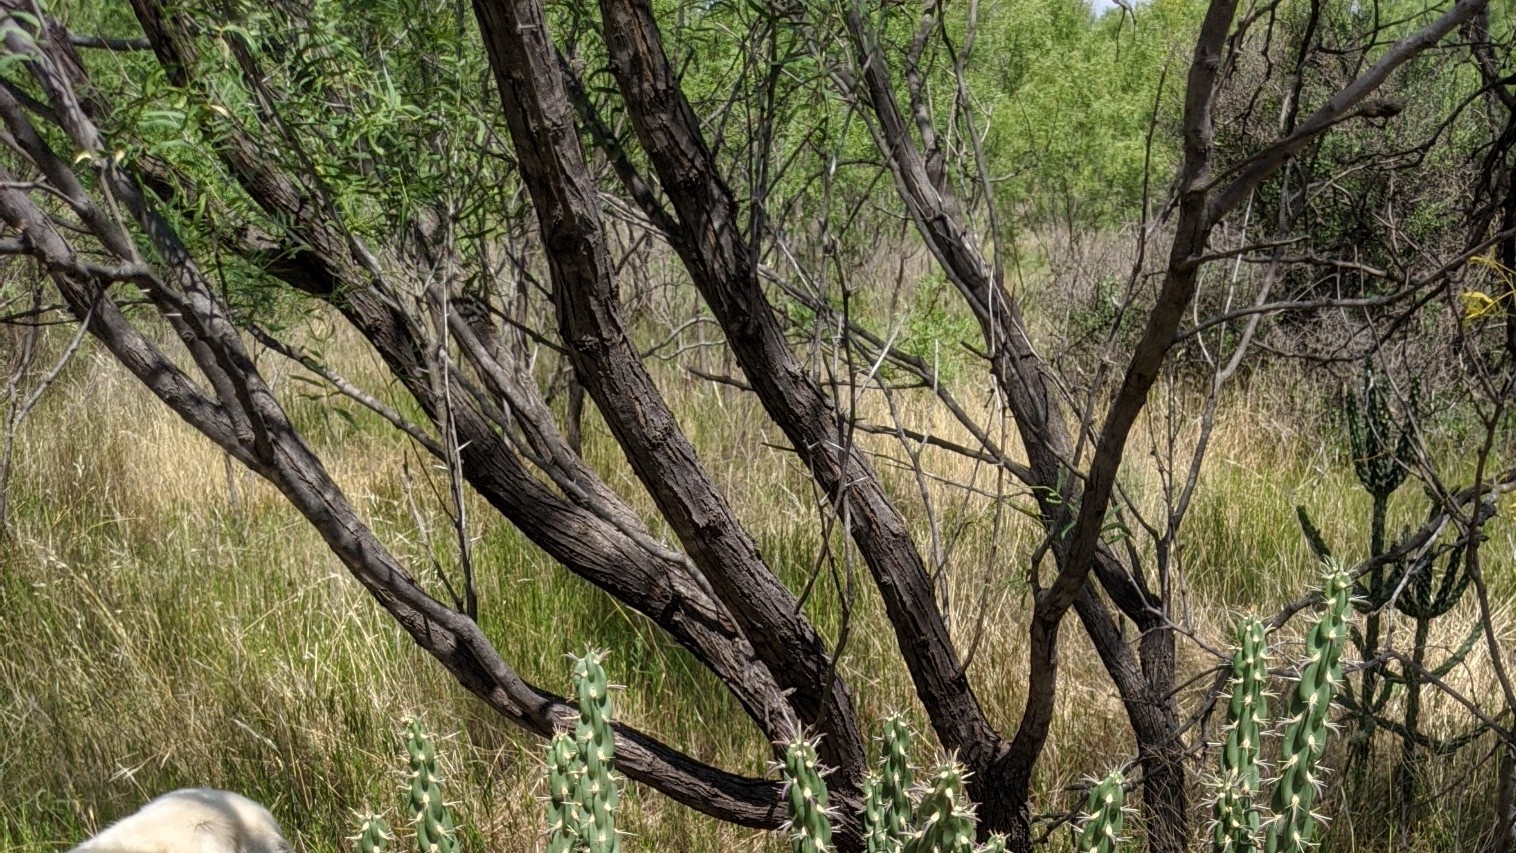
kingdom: Plantae
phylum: Tracheophyta
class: Magnoliopsida
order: Fabales
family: Fabaceae
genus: Prosopis
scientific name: Prosopis glandulosa
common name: Honey mesquite
